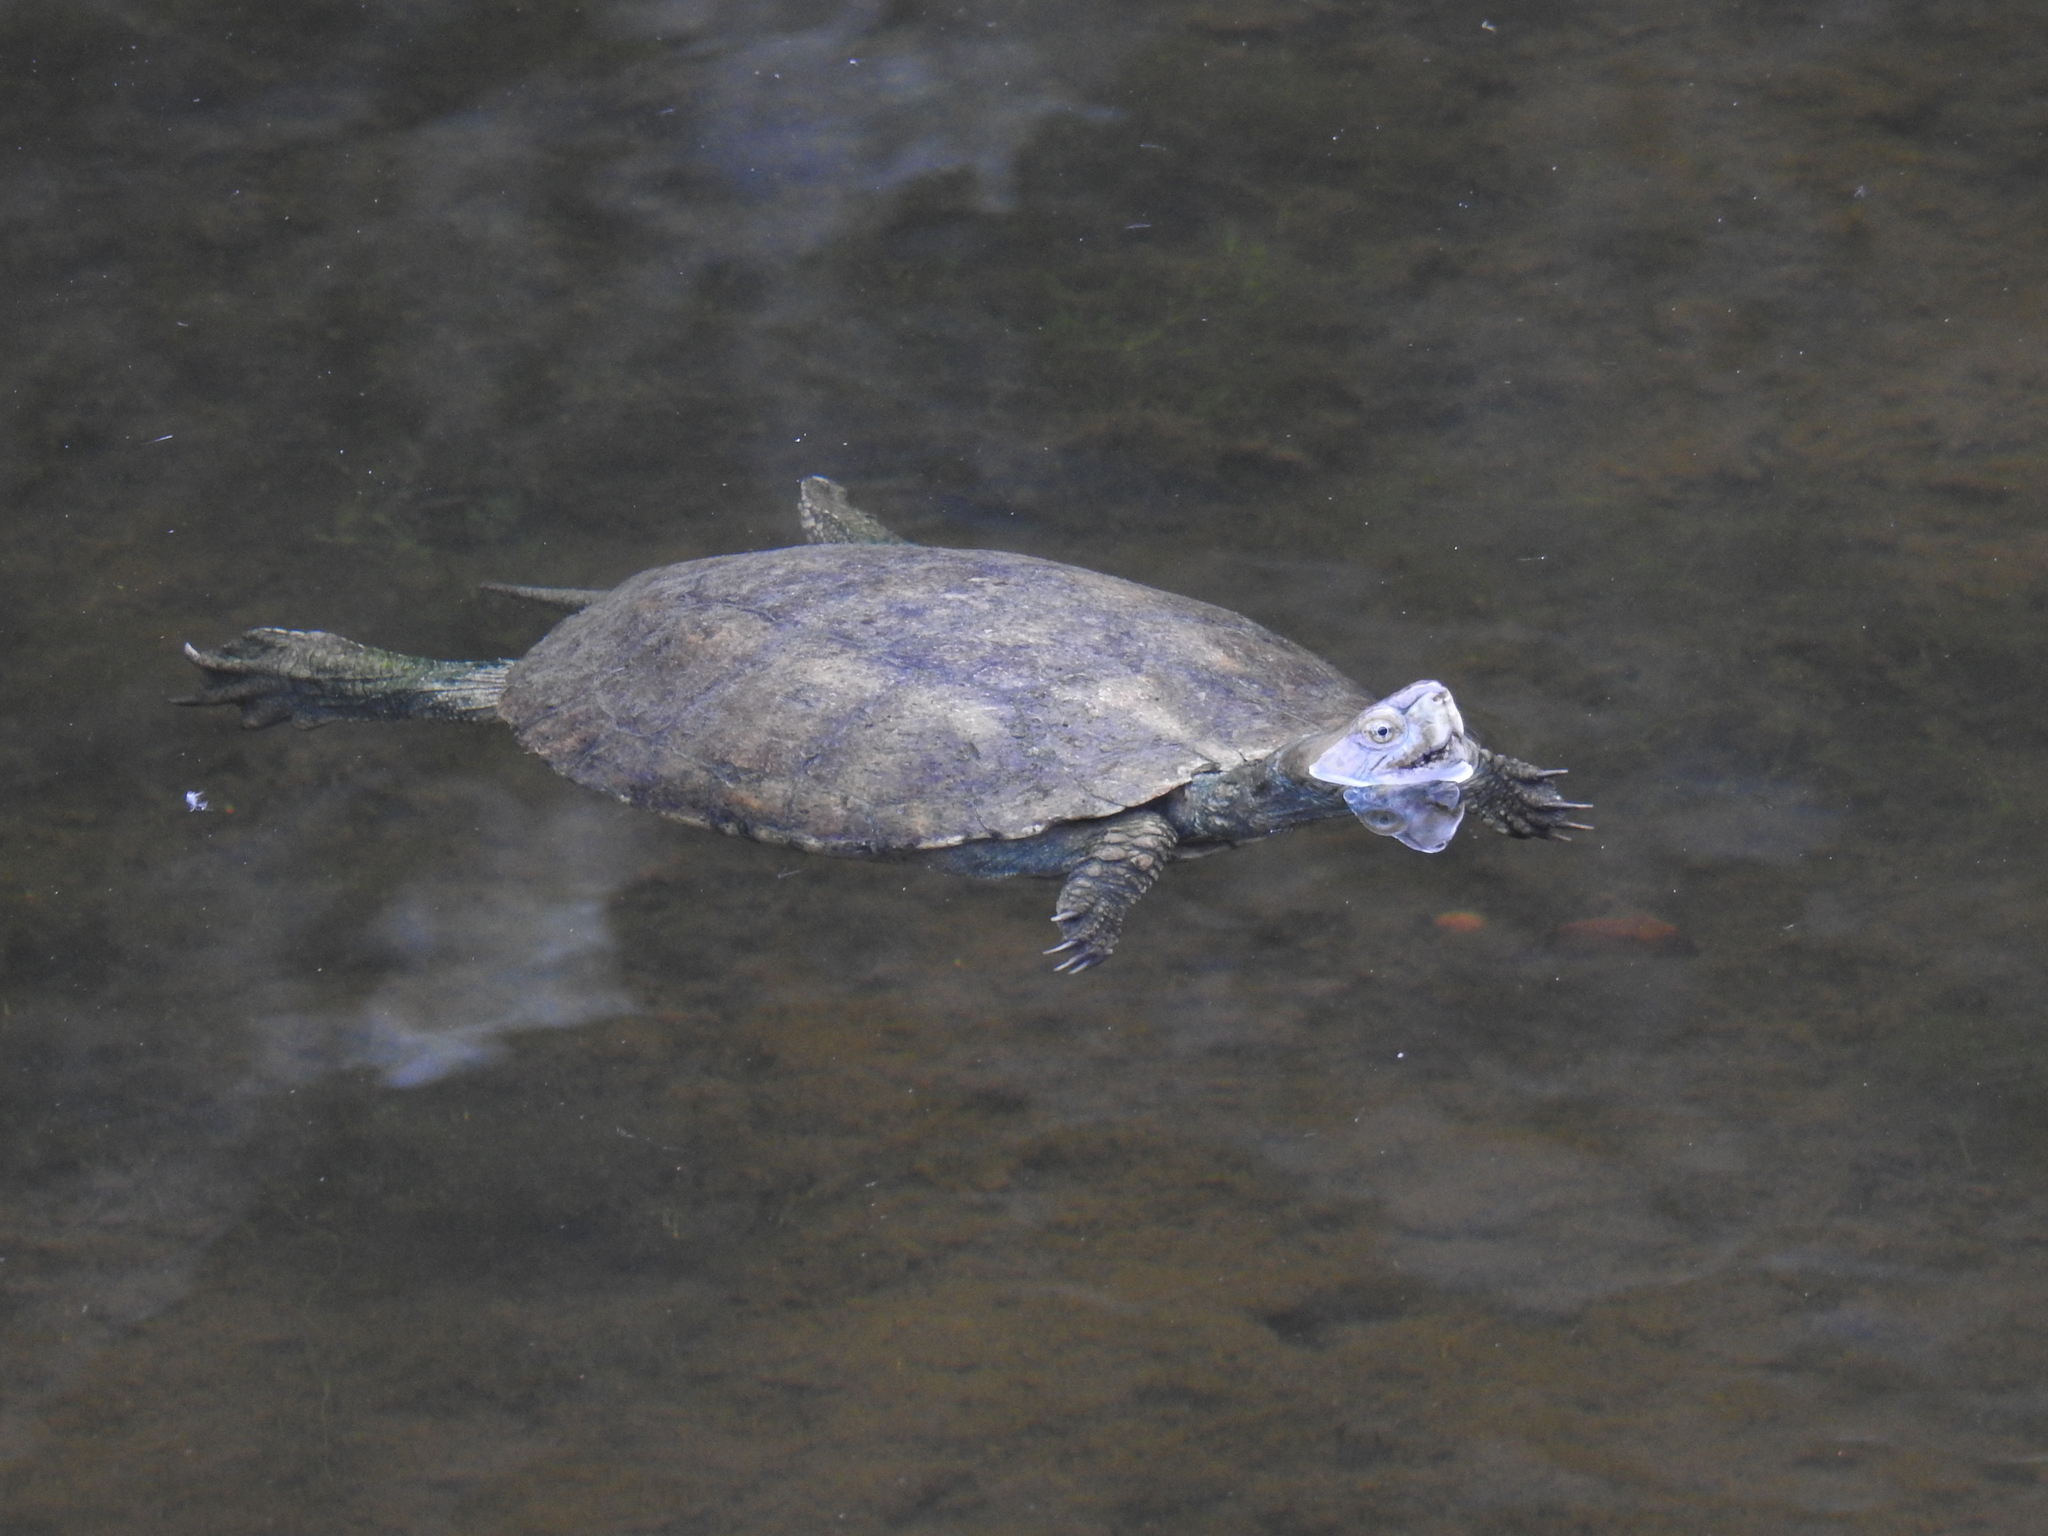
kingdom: Animalia
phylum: Chordata
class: Testudines
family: Geoemydidae
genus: Mauremys
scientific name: Mauremys leprosa
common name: Mediterranean pond turtle
